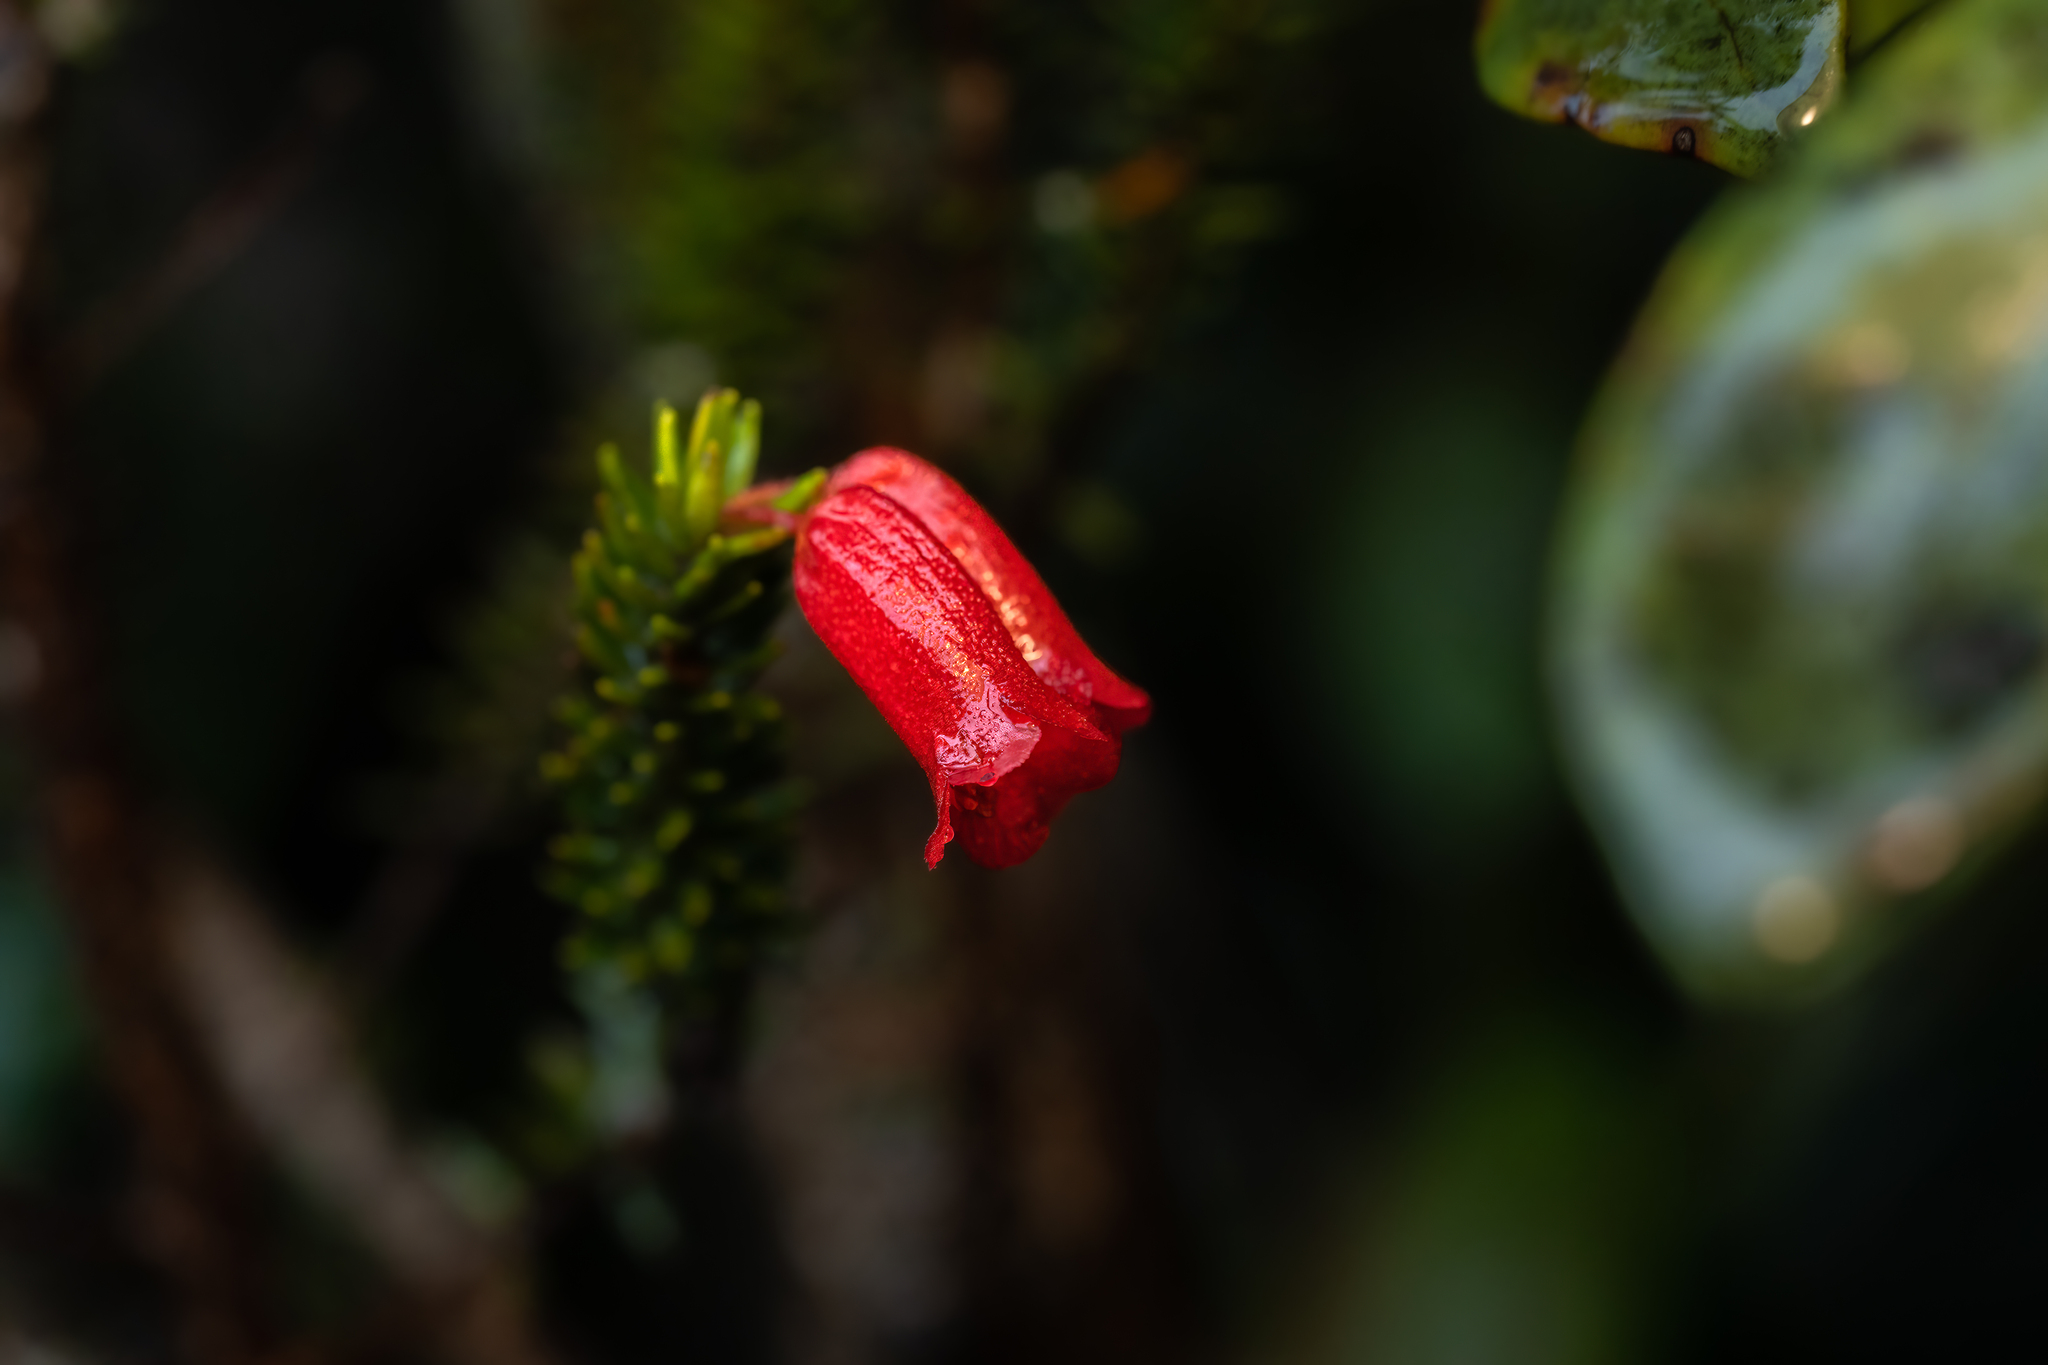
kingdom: Plantae
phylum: Tracheophyta
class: Magnoliopsida
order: Ericales
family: Ericaceae
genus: Rhododendron
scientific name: Rhododendron ericoides
